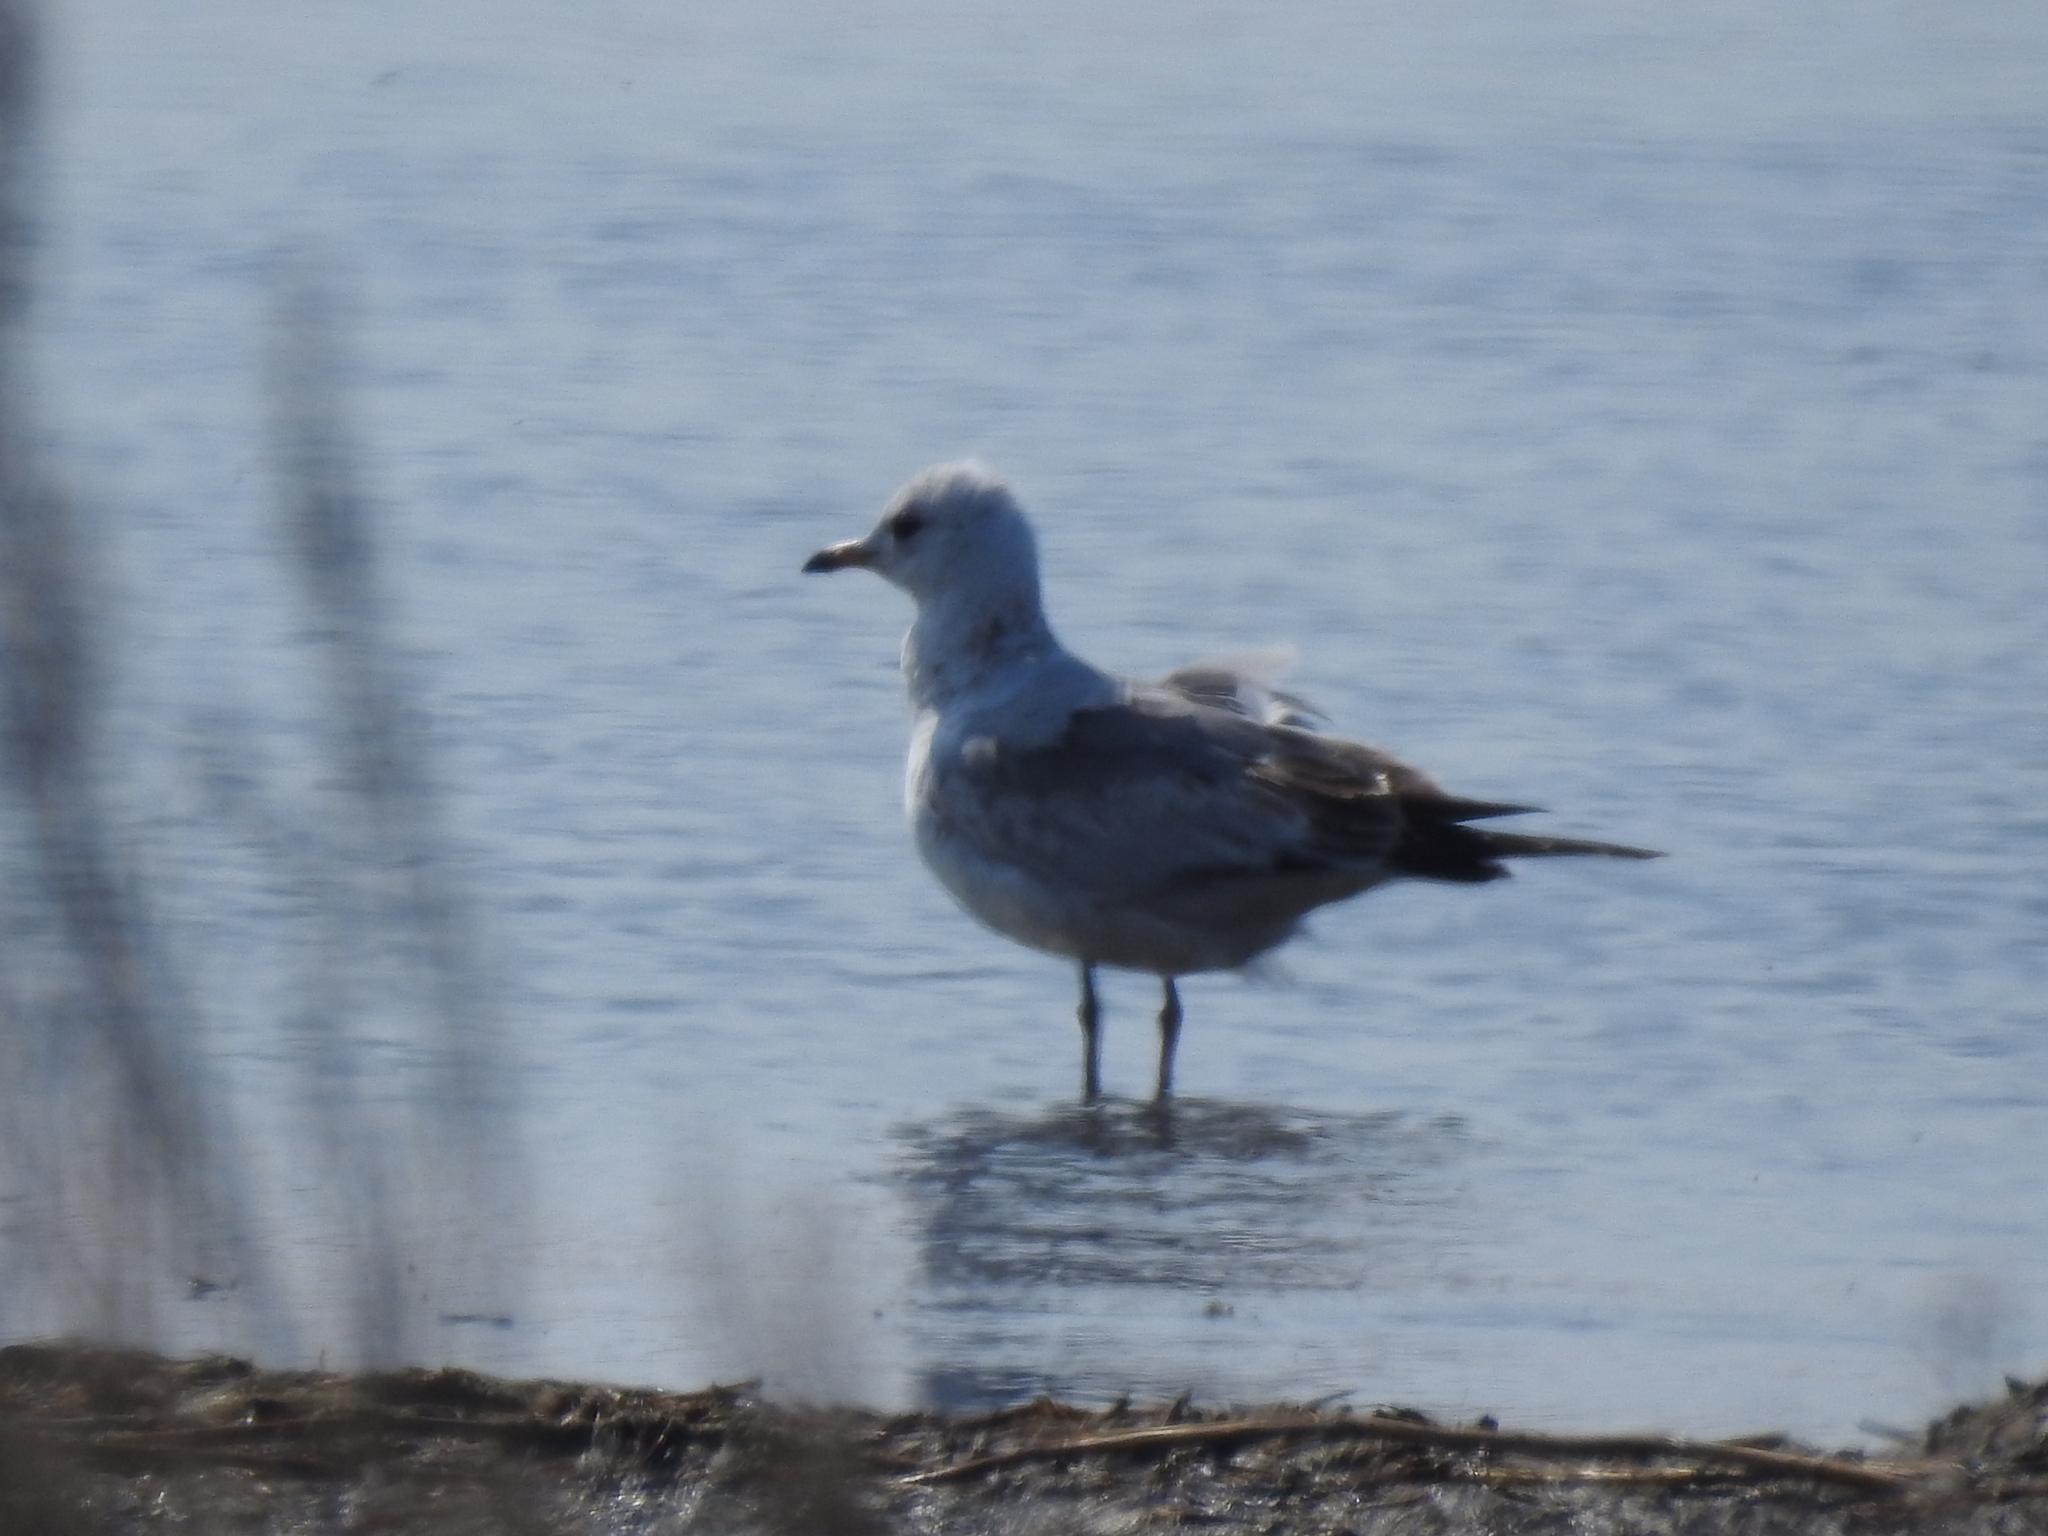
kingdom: Animalia
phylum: Chordata
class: Aves
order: Charadriiformes
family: Laridae
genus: Larus
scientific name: Larus canus
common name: Mew gull
